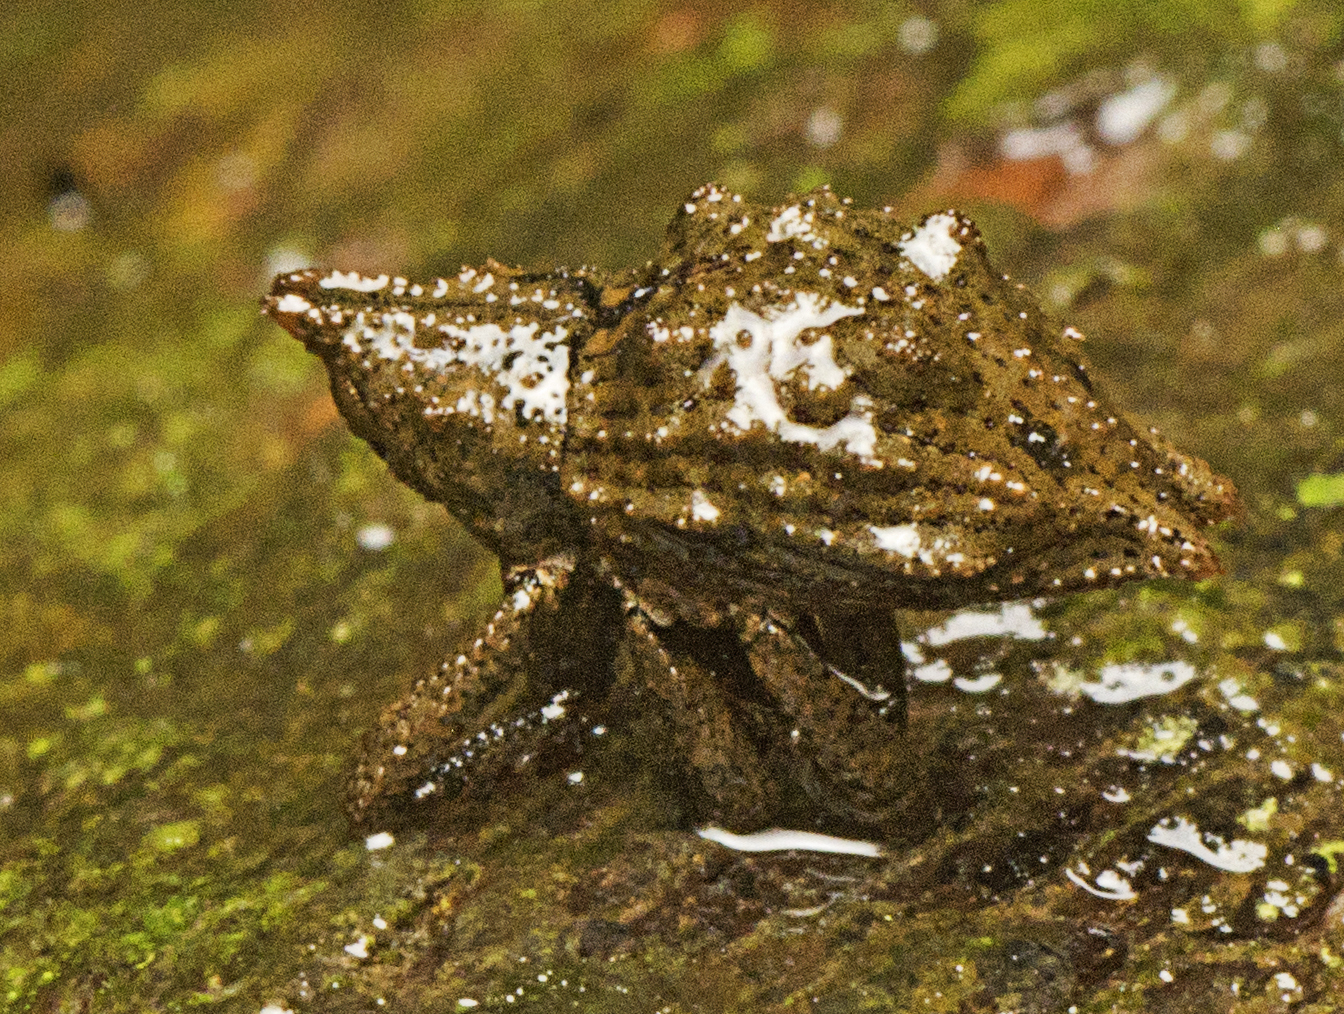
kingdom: Animalia
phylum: Arthropoda
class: Insecta
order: Coleoptera
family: Curculionidae
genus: Ouroporopterus
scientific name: Ouroporopterus squamiventris
